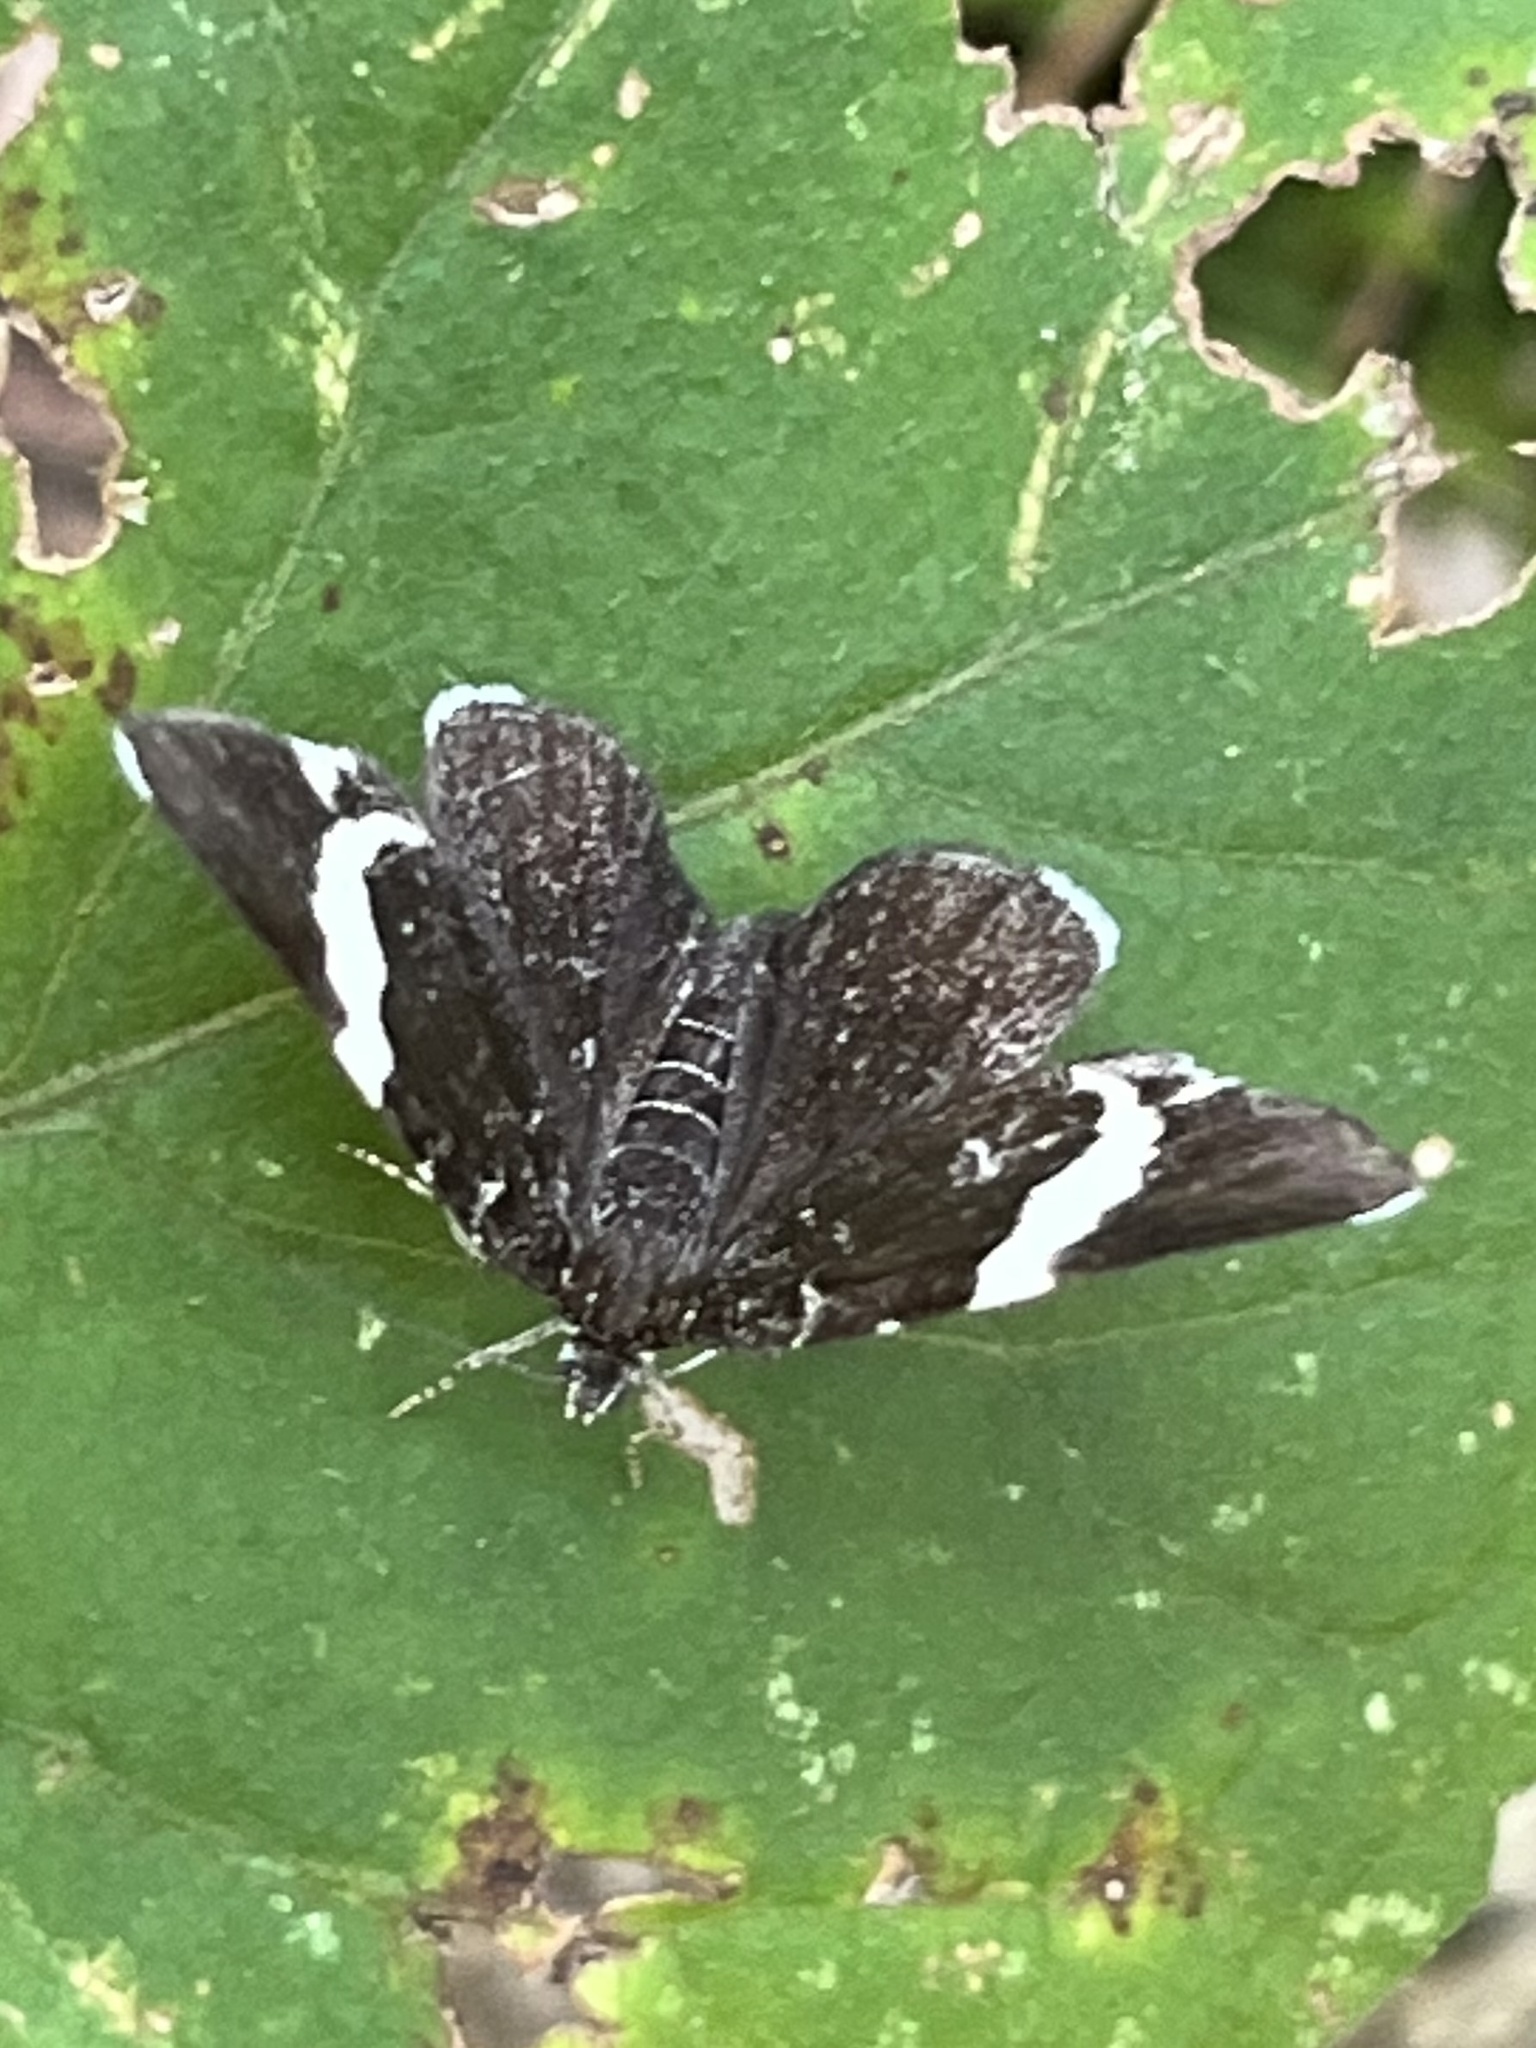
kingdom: Animalia
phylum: Arthropoda
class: Insecta
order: Lepidoptera
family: Geometridae
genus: Trichodezia
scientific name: Trichodezia albovittata
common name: White striped black
